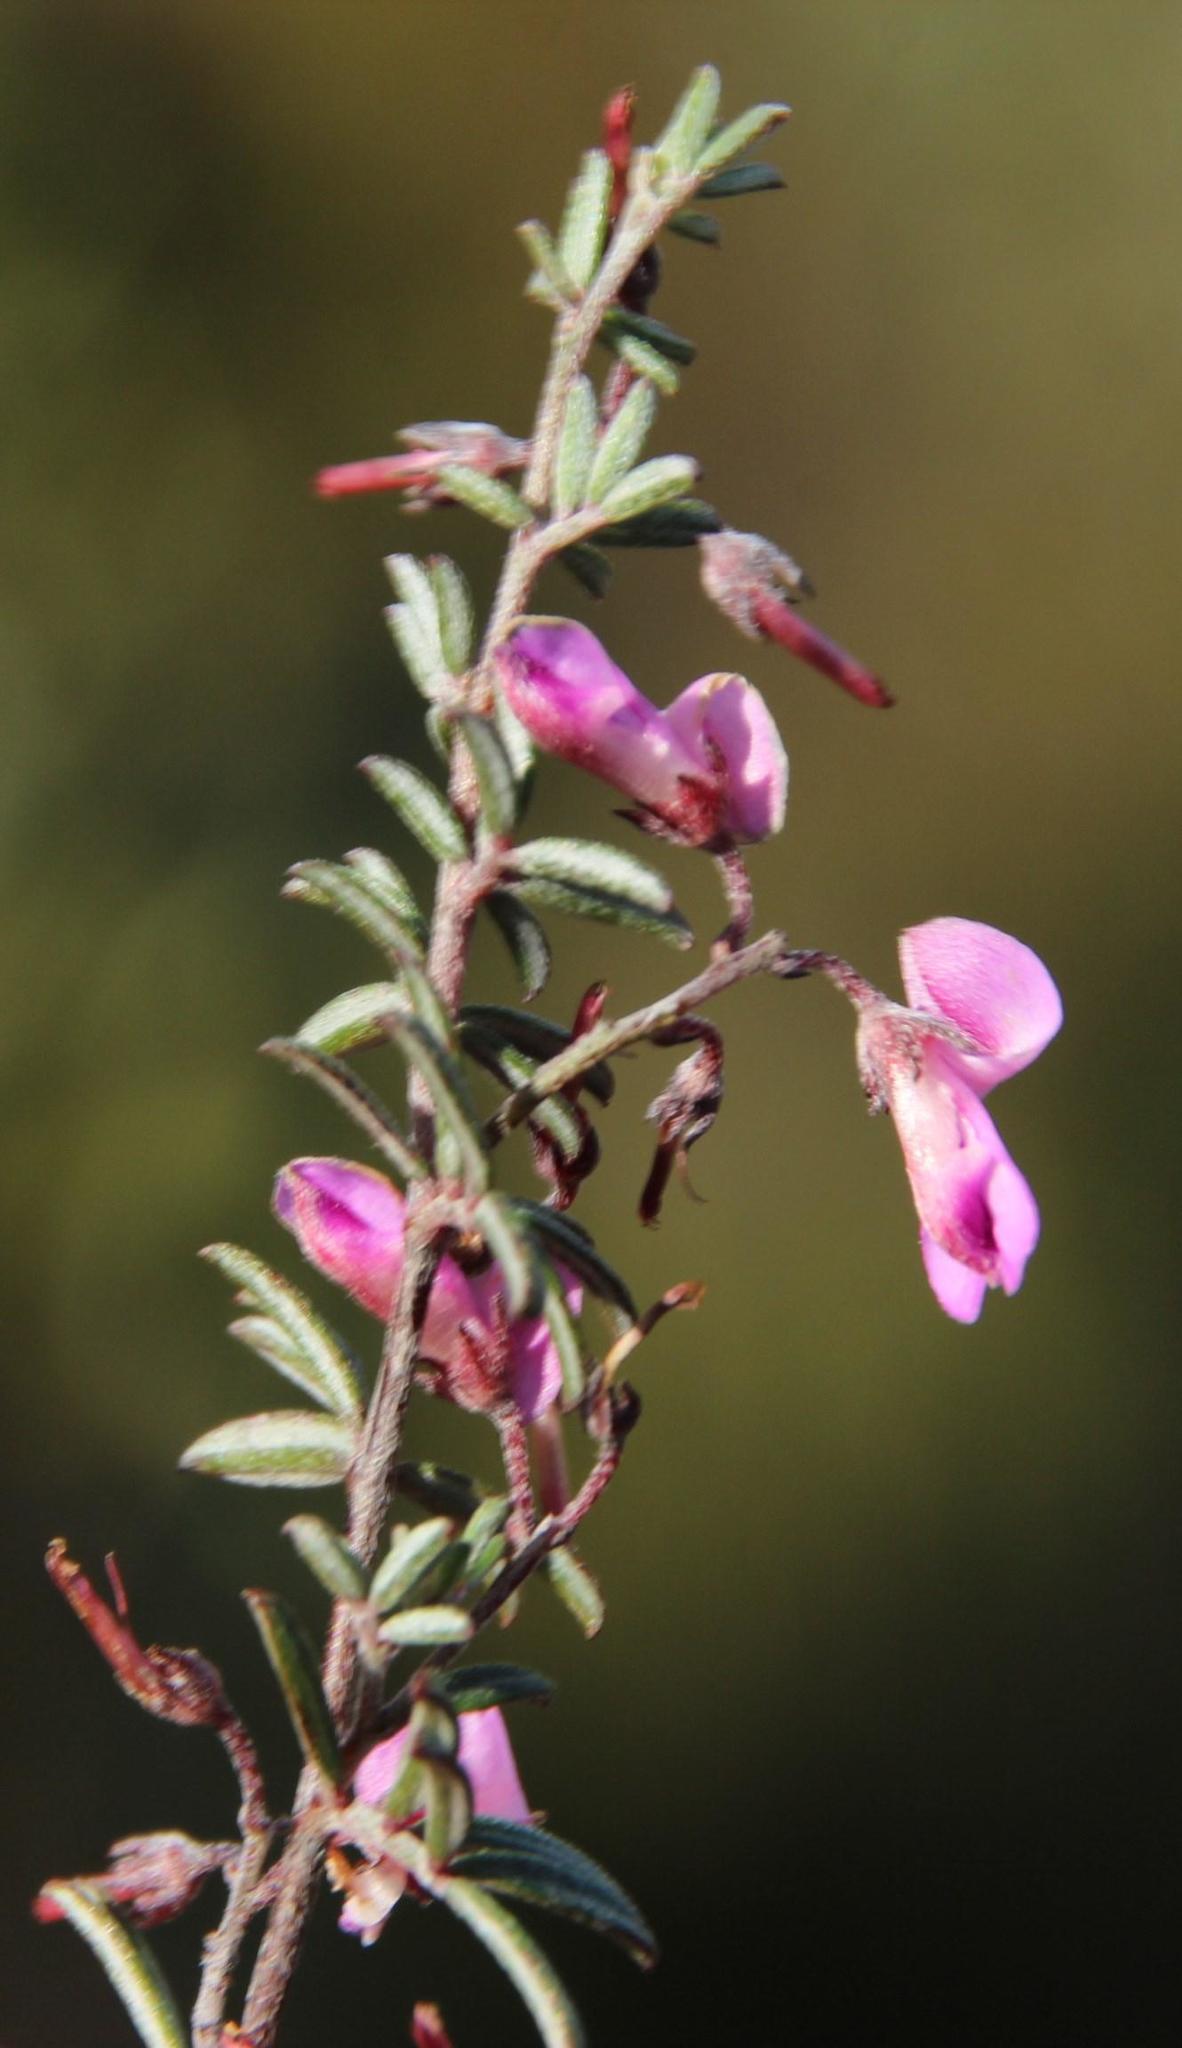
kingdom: Plantae
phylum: Tracheophyta
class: Magnoliopsida
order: Fabales
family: Fabaceae
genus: Indigofera
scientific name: Indigofera pilgeriana
